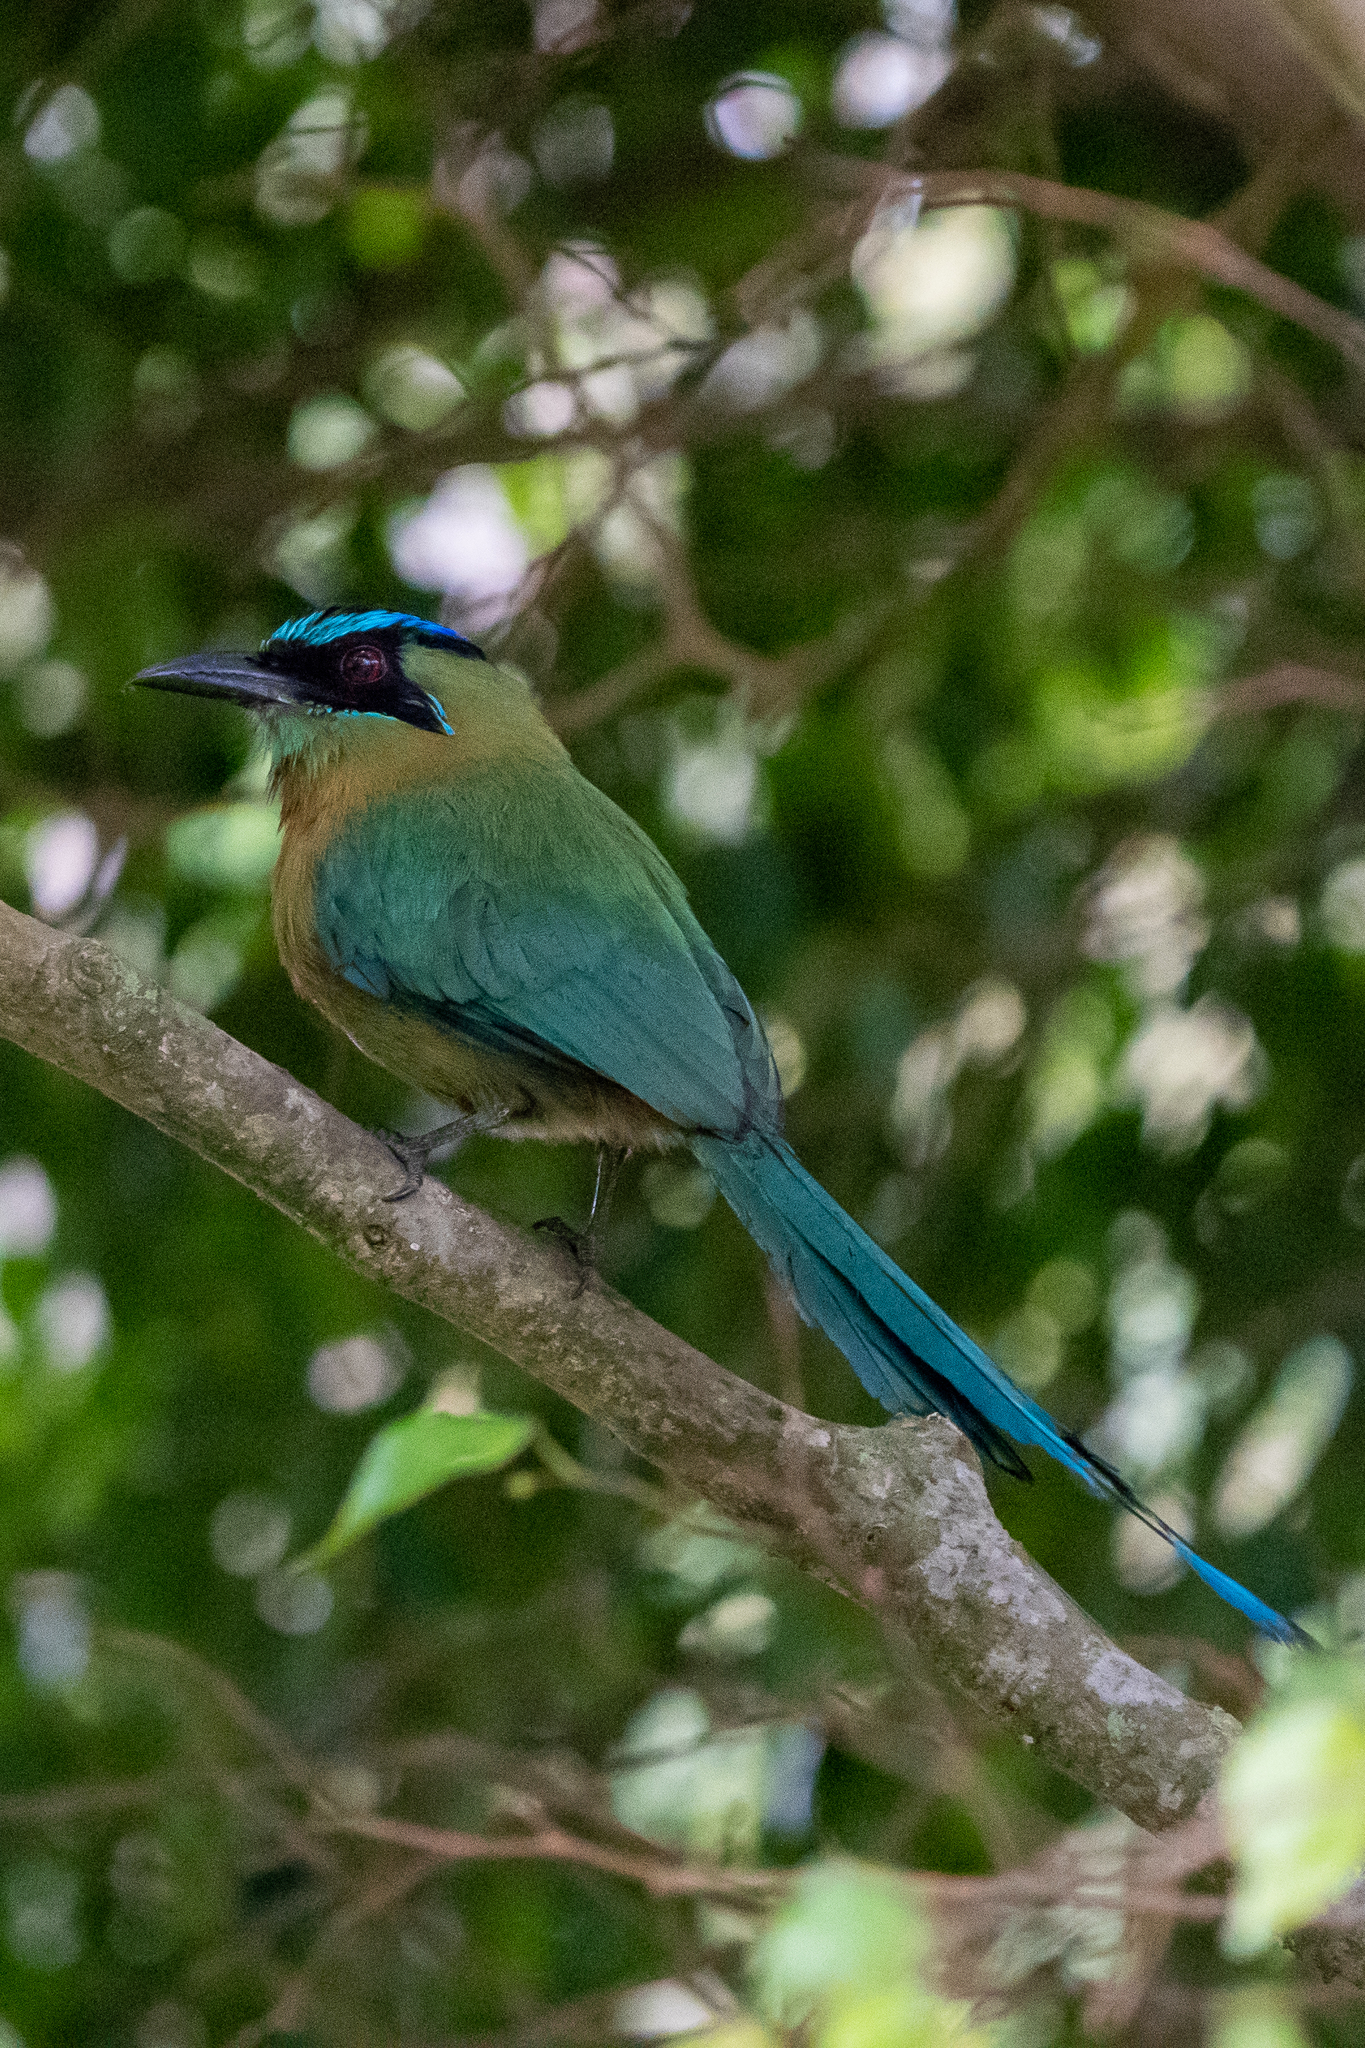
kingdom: Animalia
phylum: Chordata
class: Aves
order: Coraciiformes
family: Momotidae
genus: Momotus
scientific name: Momotus lessonii
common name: Lesson's motmot
